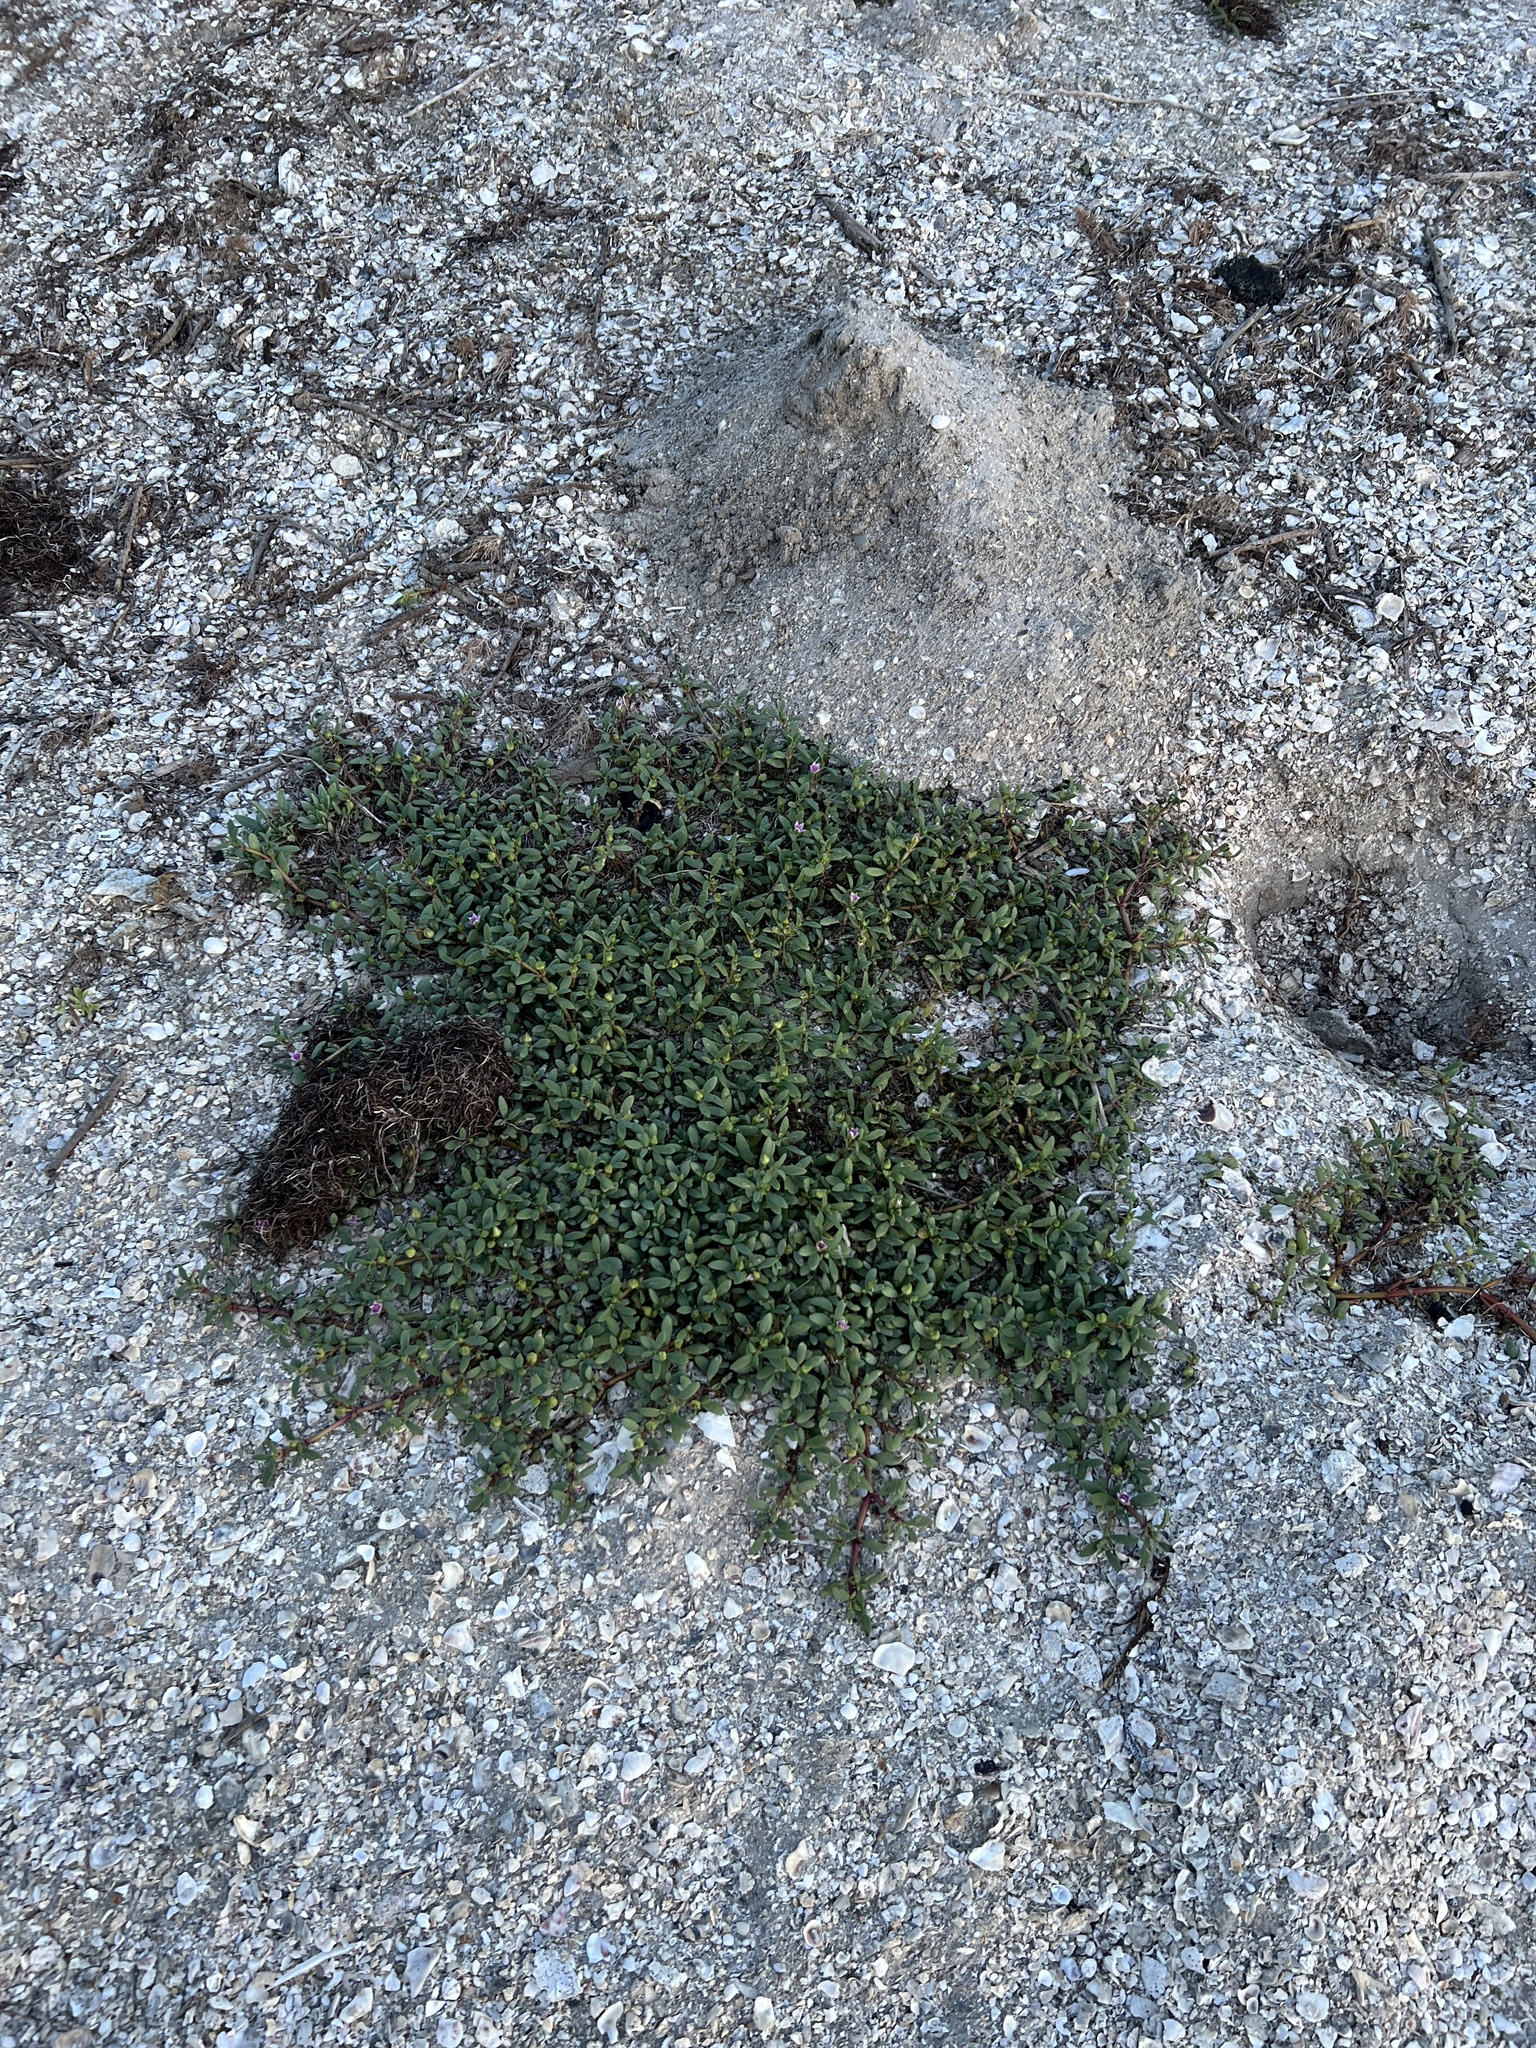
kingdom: Plantae
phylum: Tracheophyta
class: Magnoliopsida
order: Caryophyllales
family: Aizoaceae
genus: Sesuvium
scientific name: Sesuvium portulacastrum
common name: Sea-purslane
